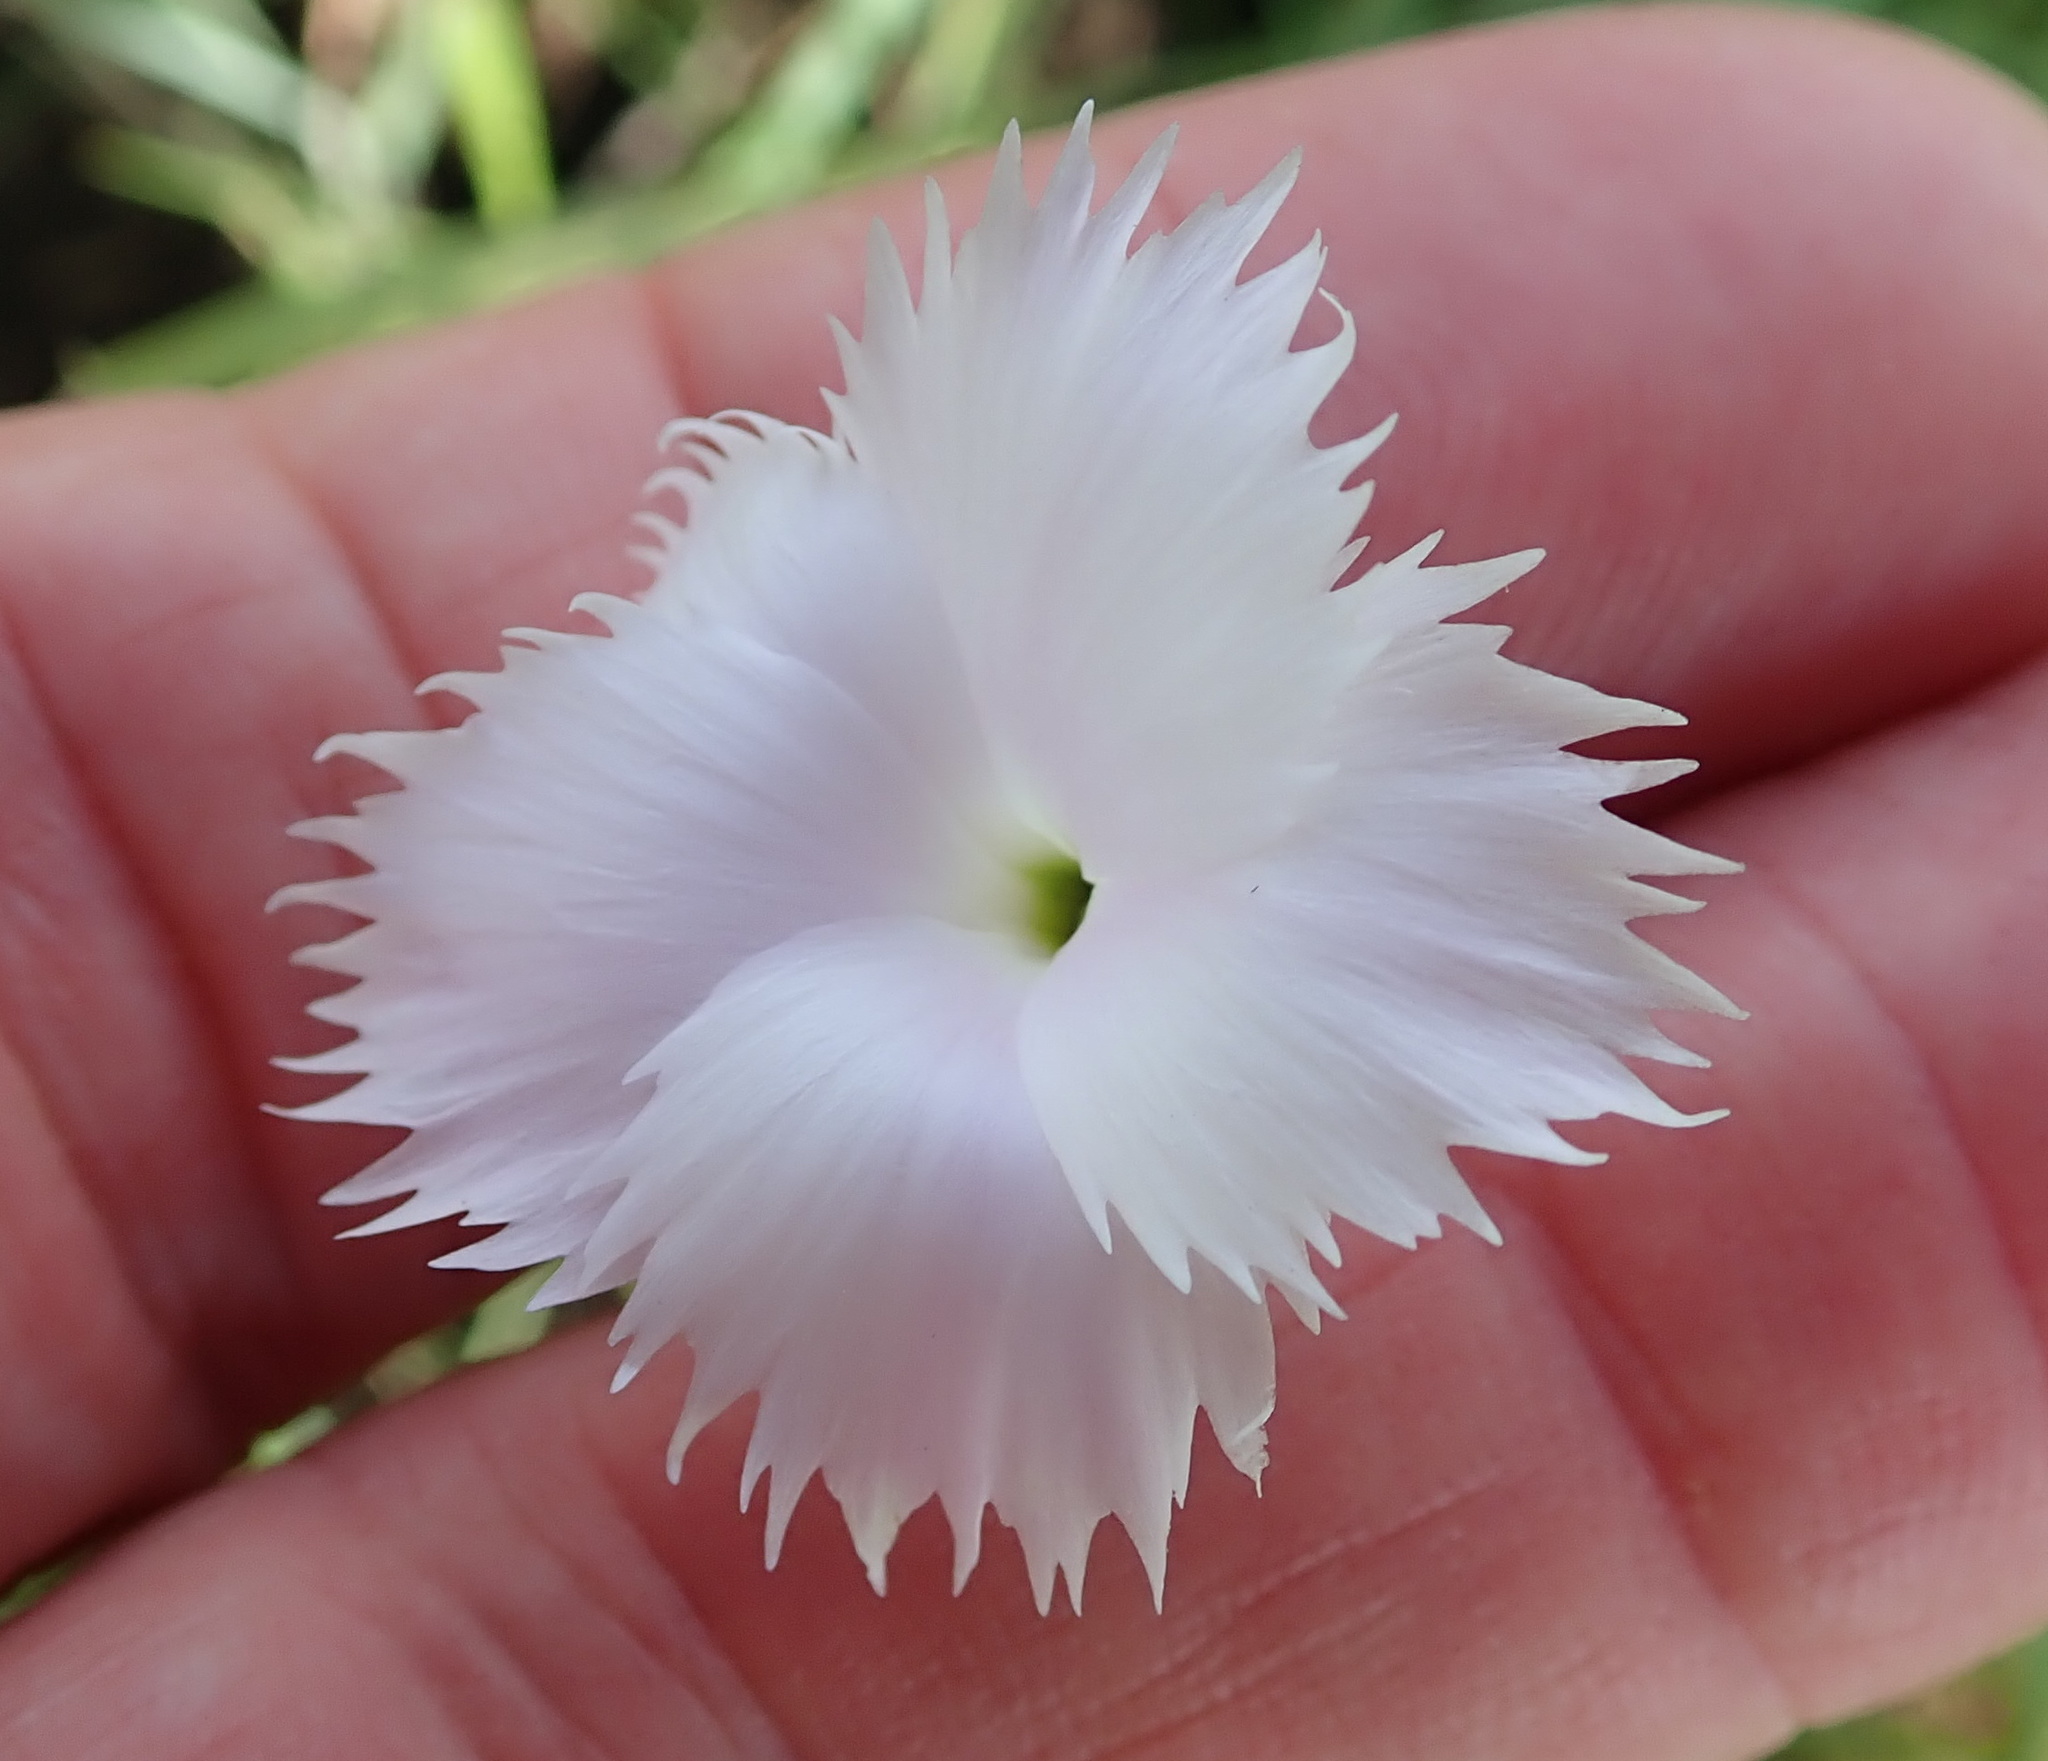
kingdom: Plantae
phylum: Tracheophyta
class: Magnoliopsida
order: Caryophyllales
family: Caryophyllaceae
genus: Dianthus
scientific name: Dianthus zeyheri
